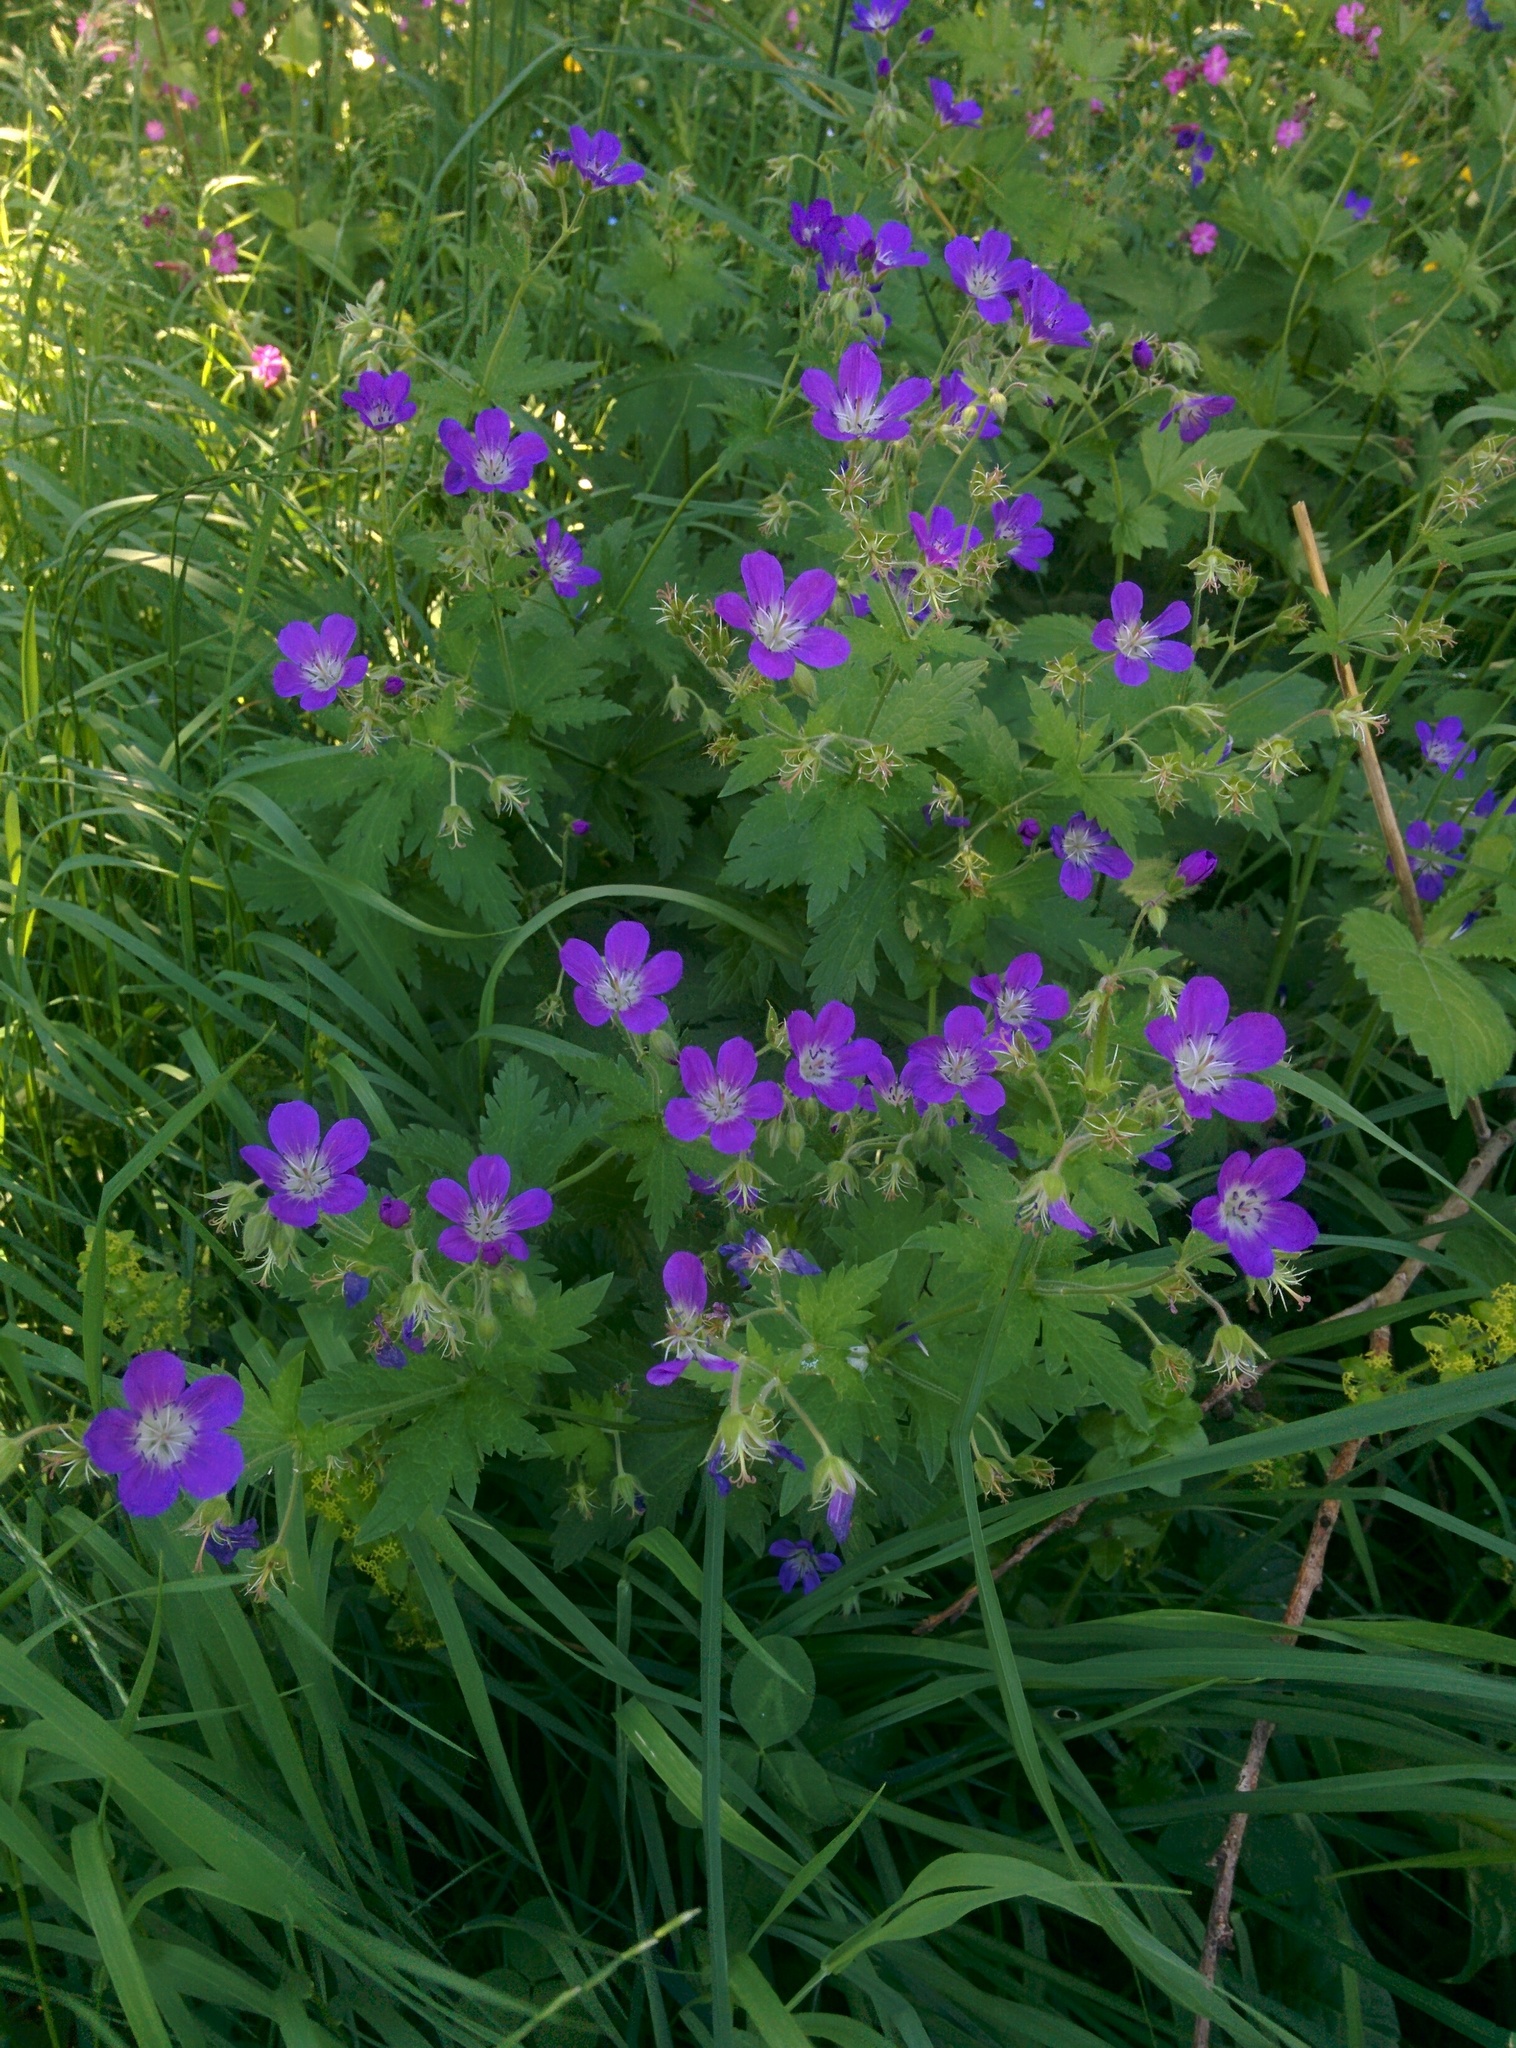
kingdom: Plantae
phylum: Tracheophyta
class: Magnoliopsida
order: Geraniales
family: Geraniaceae
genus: Geranium
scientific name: Geranium sylvaticum
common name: Wood crane's-bill
